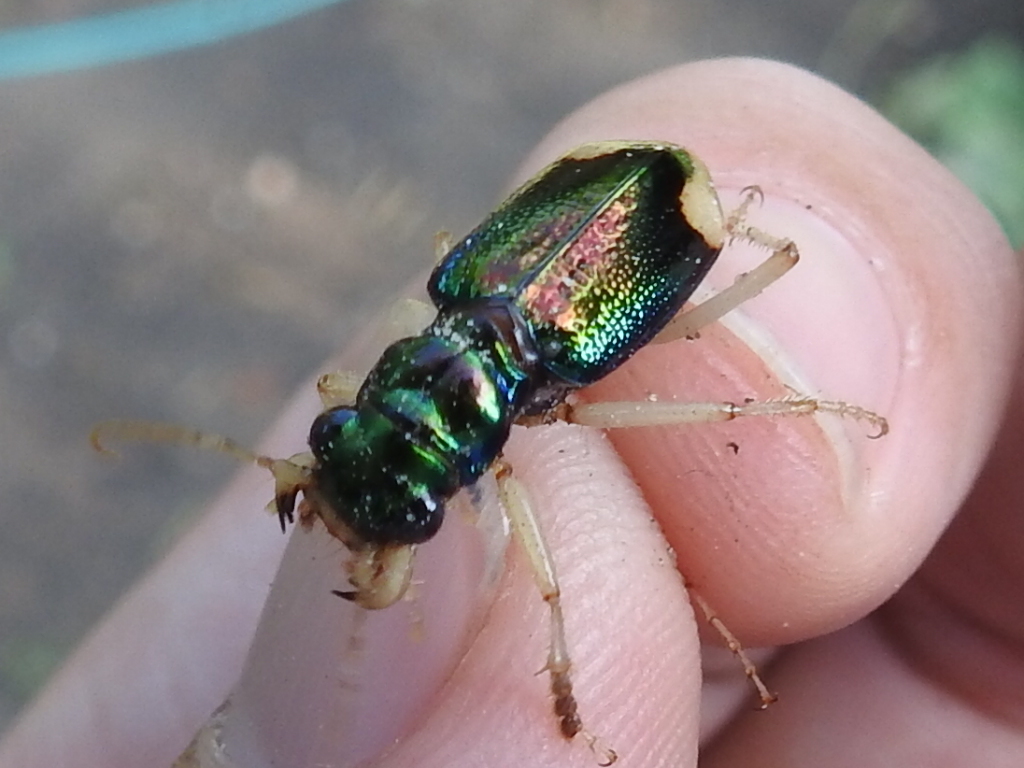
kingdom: Animalia
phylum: Arthropoda
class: Insecta
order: Coleoptera
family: Carabidae
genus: Tetracha
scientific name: Tetracha carolina
